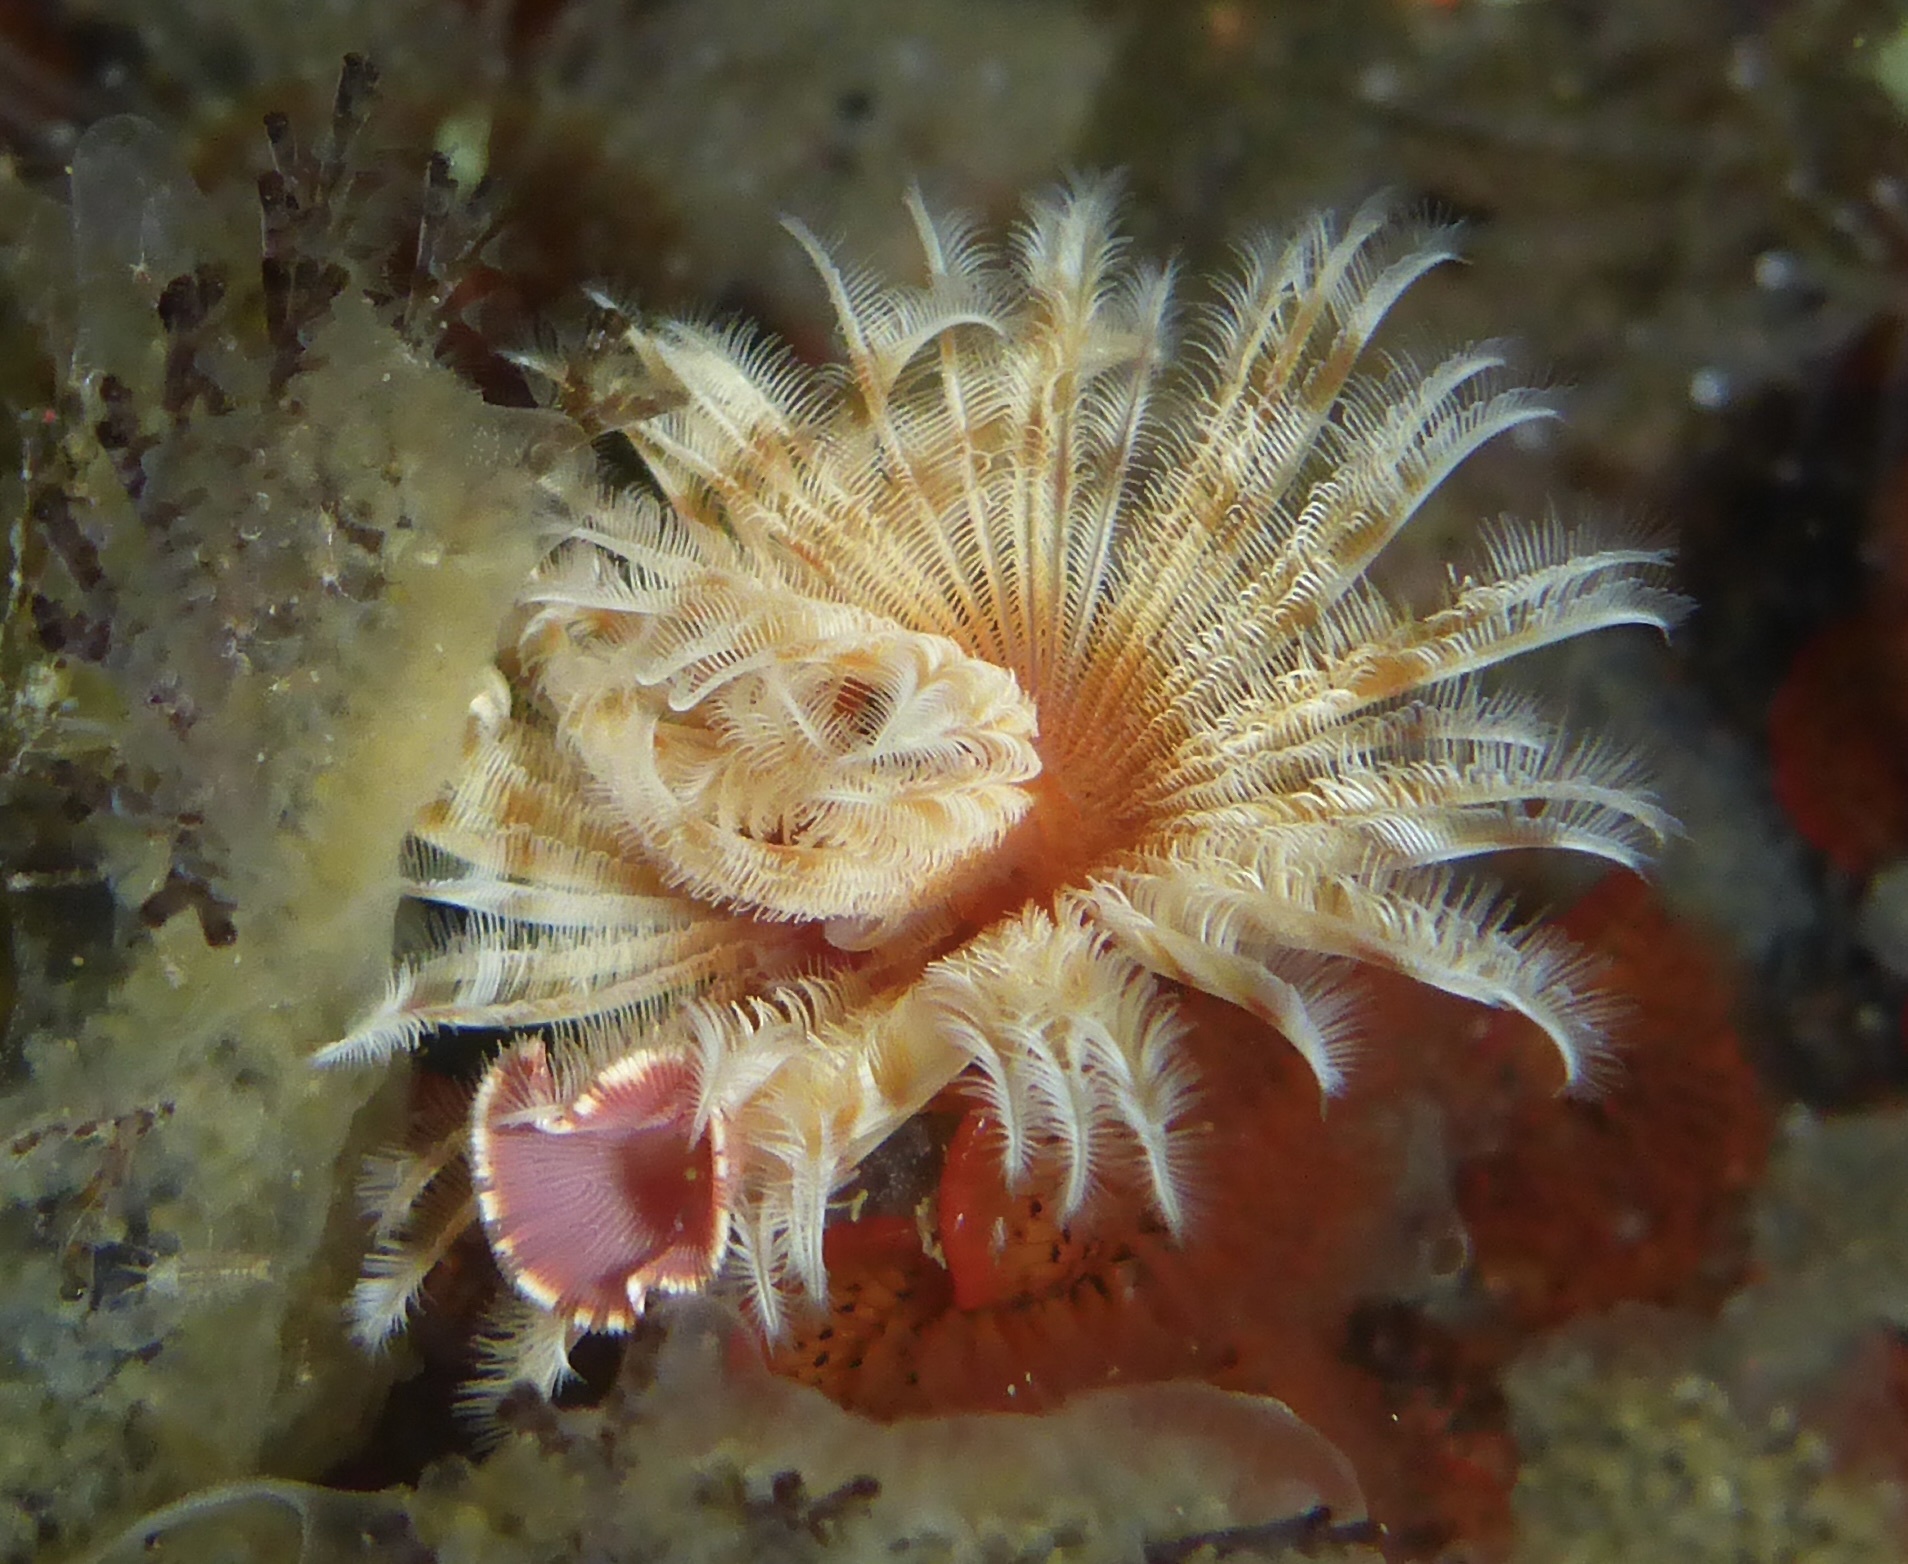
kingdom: Animalia
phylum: Annelida
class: Polychaeta
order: Sabellida
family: Serpulidae
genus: Serpula
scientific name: Serpula columbiana
